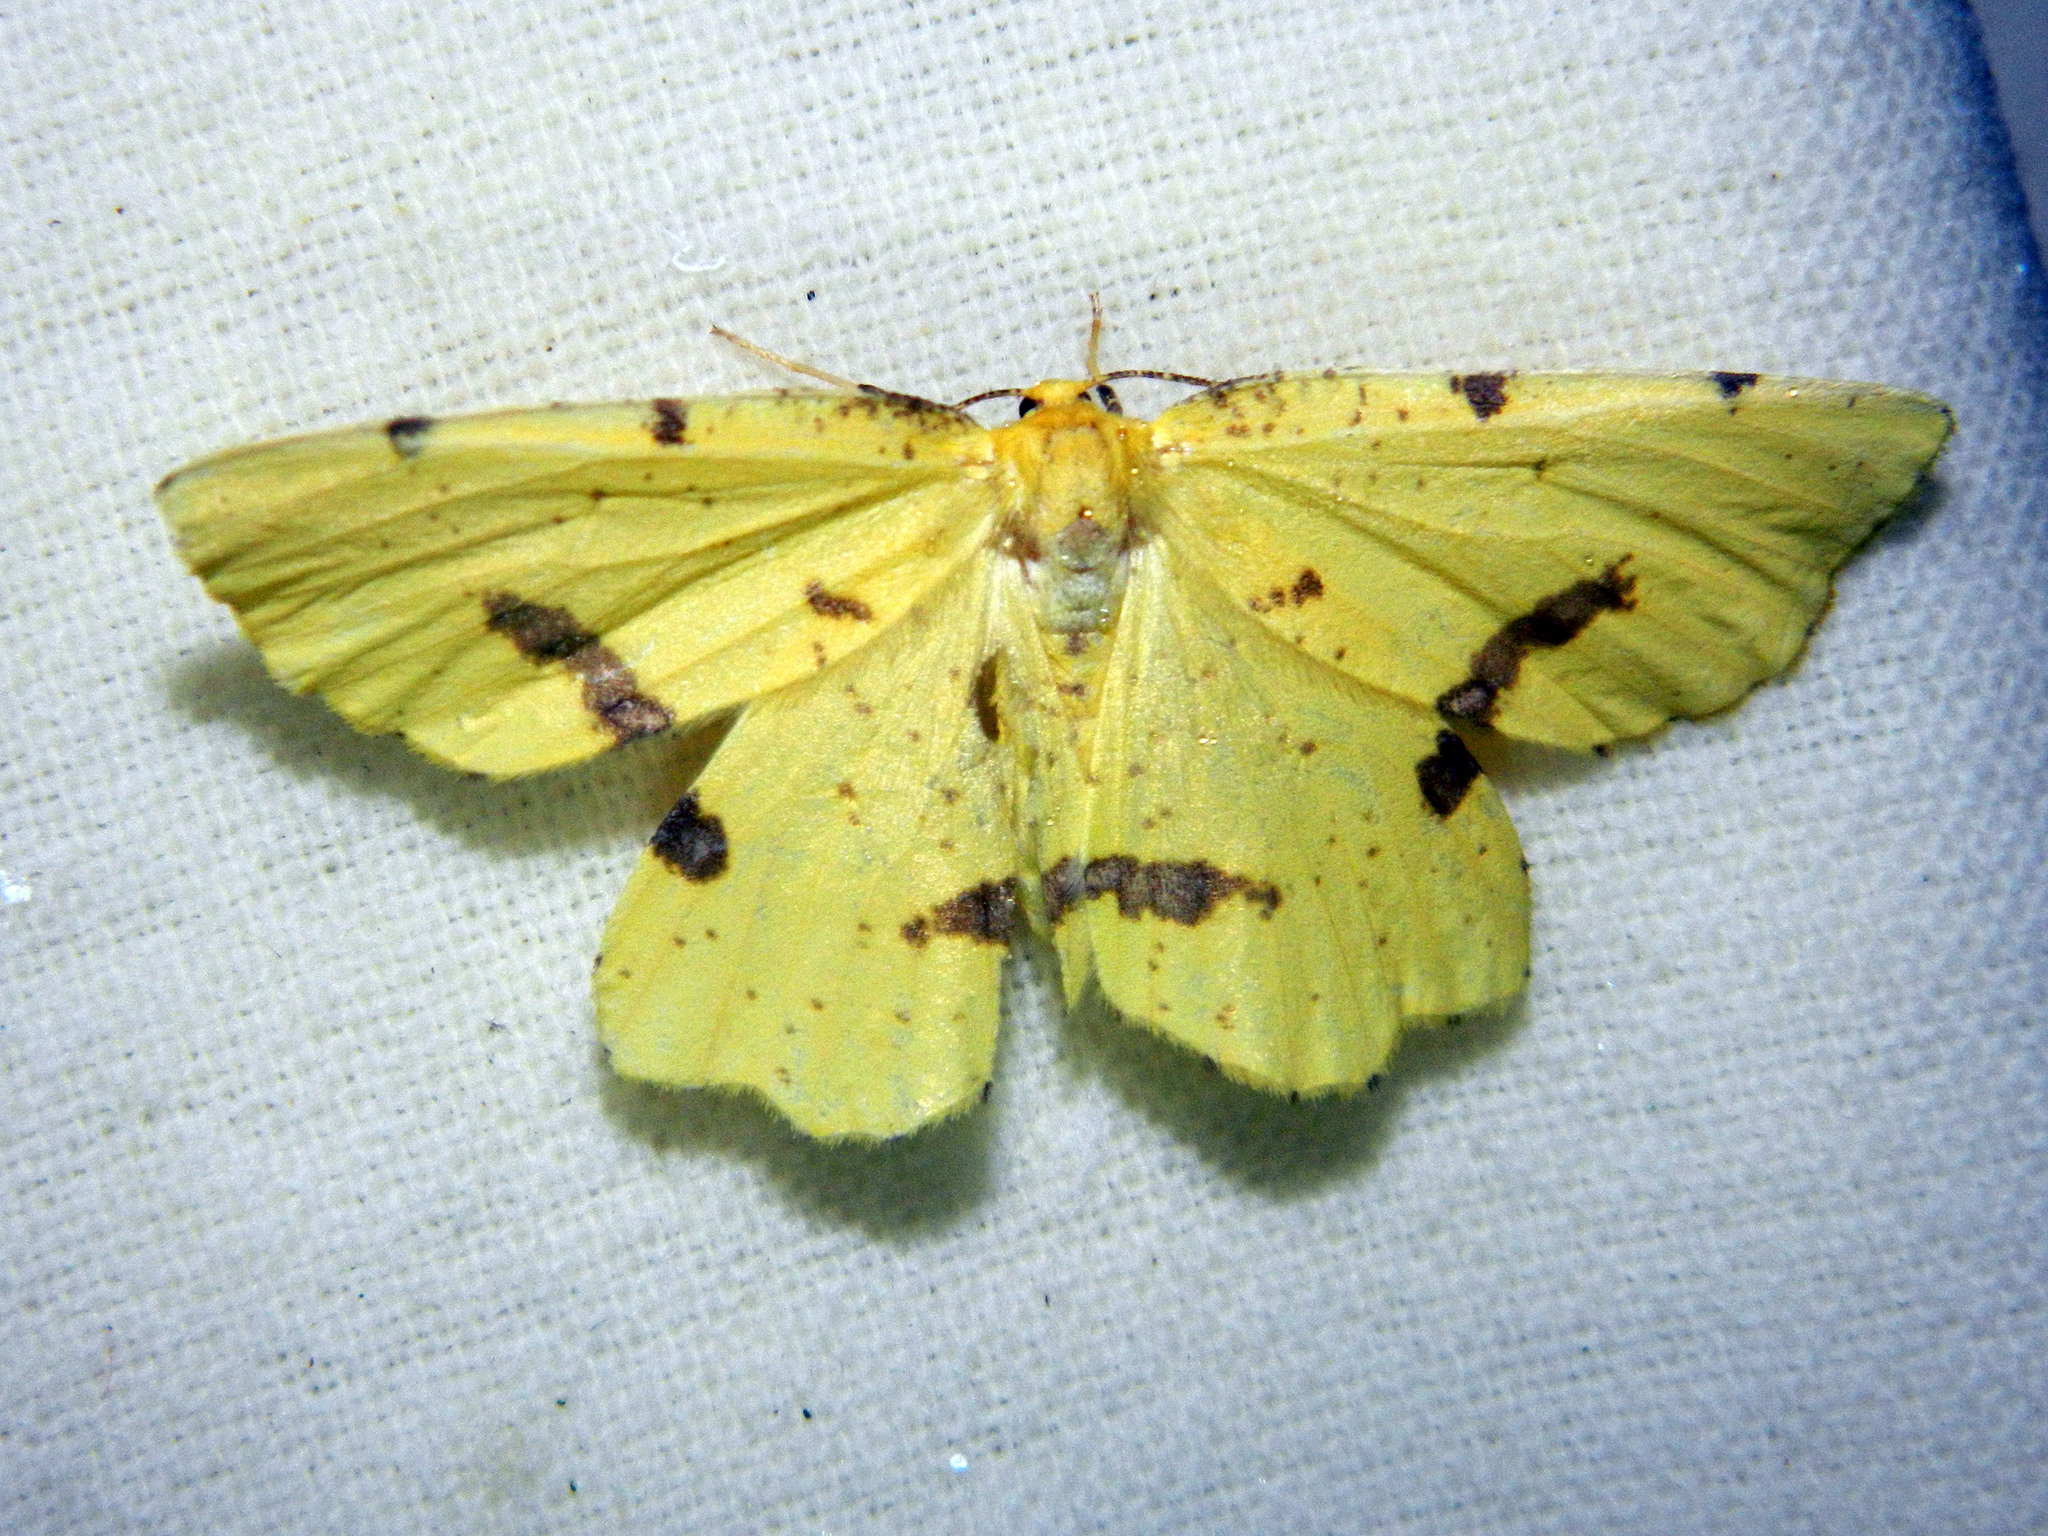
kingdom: Animalia
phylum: Arthropoda
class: Insecta
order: Lepidoptera
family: Geometridae
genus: Xanthotype
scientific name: Xanthotype
